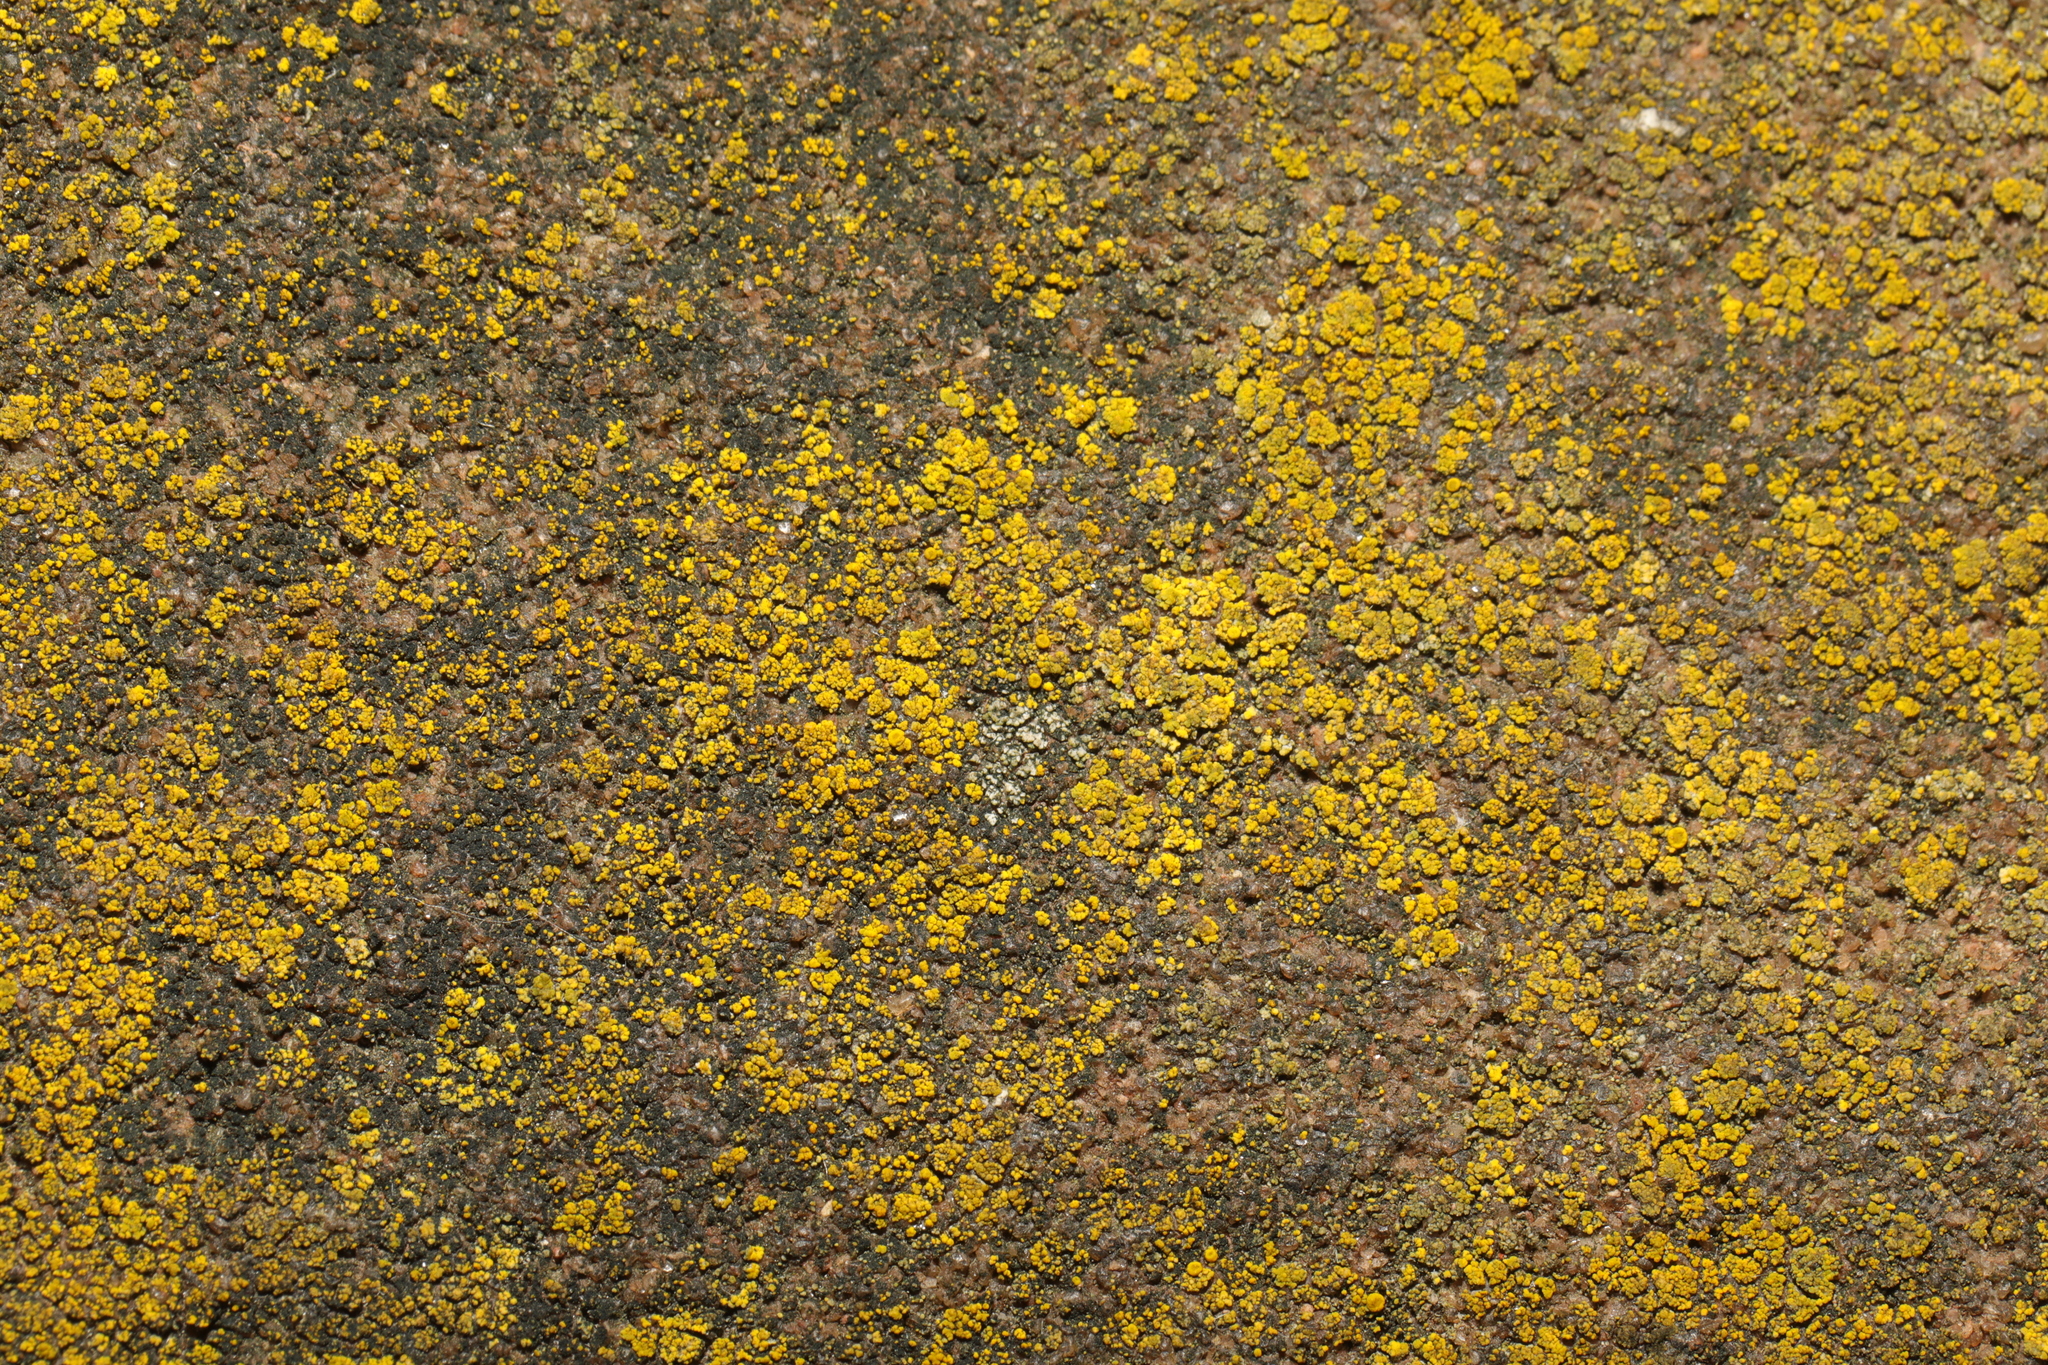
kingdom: Fungi
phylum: Ascomycota
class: Candelariomycetes
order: Candelariales
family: Candelariaceae
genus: Candelariella
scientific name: Candelariella vitellina
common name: Common goldspeck
